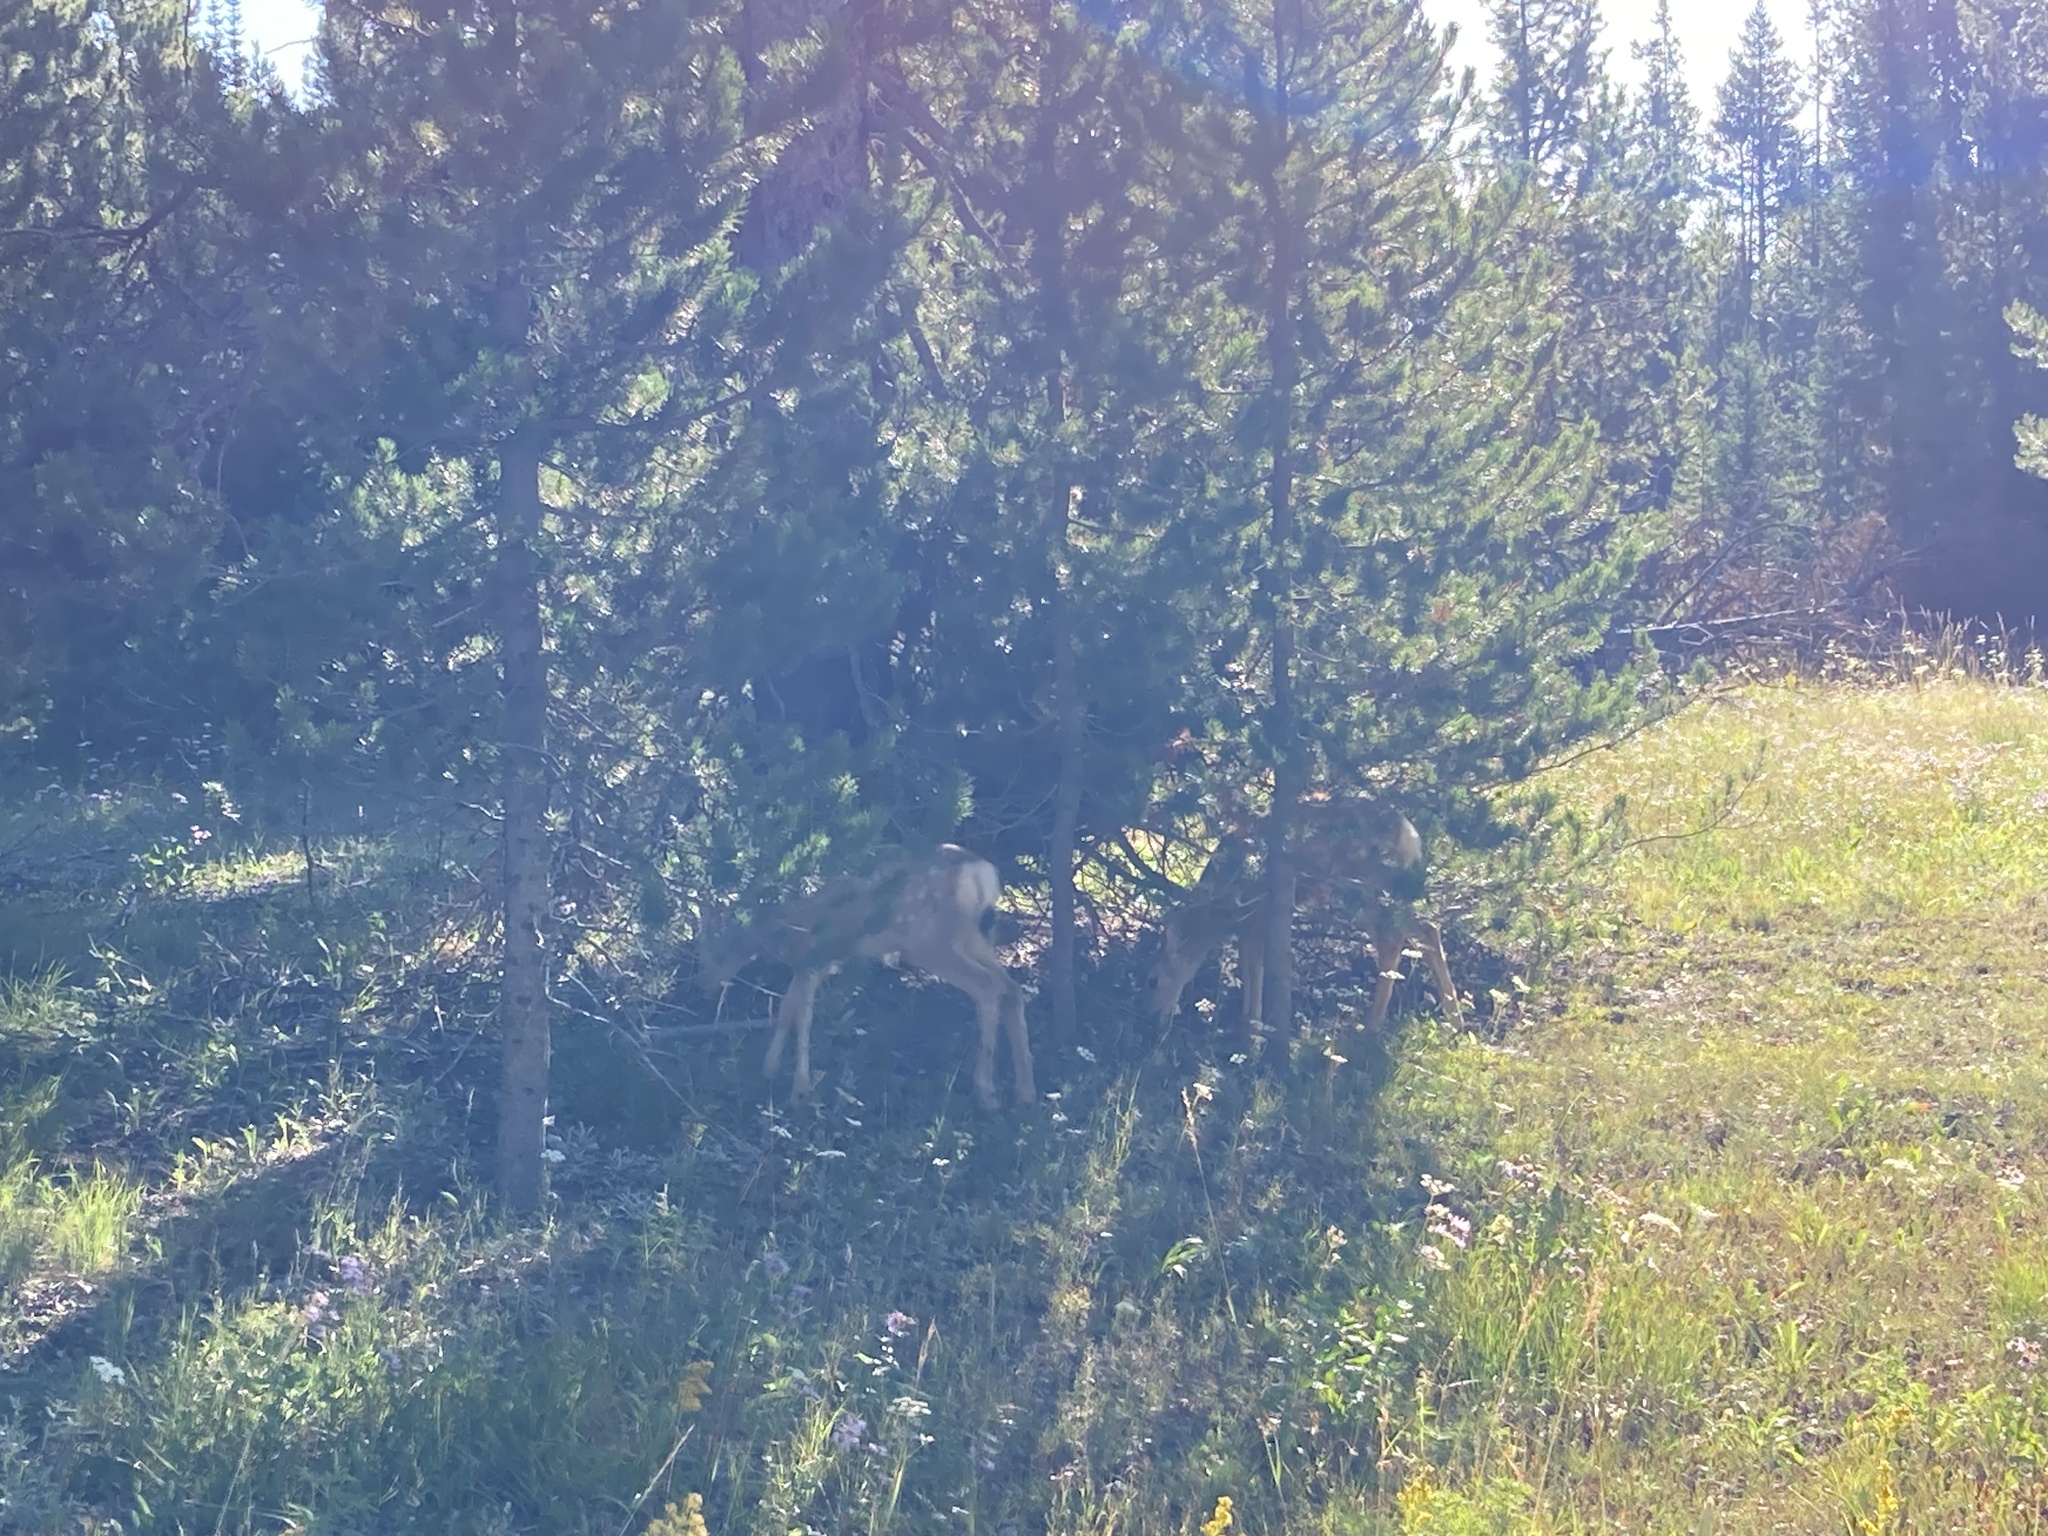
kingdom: Animalia
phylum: Chordata
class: Mammalia
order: Artiodactyla
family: Cervidae
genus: Odocoileus
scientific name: Odocoileus hemionus
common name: Mule deer
